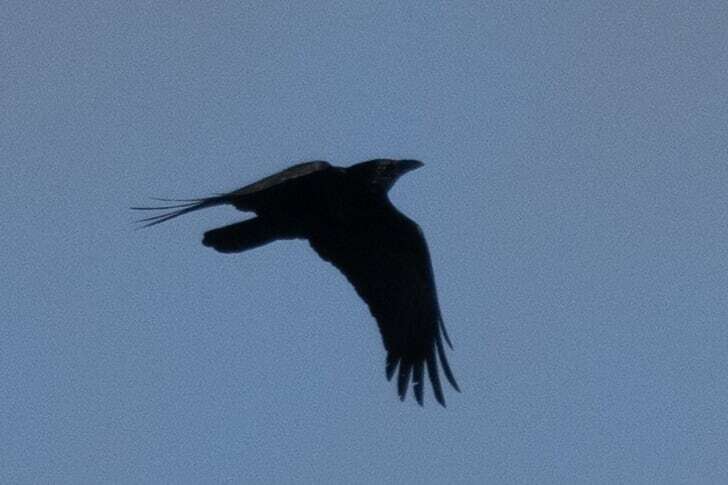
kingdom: Animalia
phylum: Chordata
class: Aves
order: Passeriformes
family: Corvidae
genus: Corvus
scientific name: Corvus corone
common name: Carrion crow
